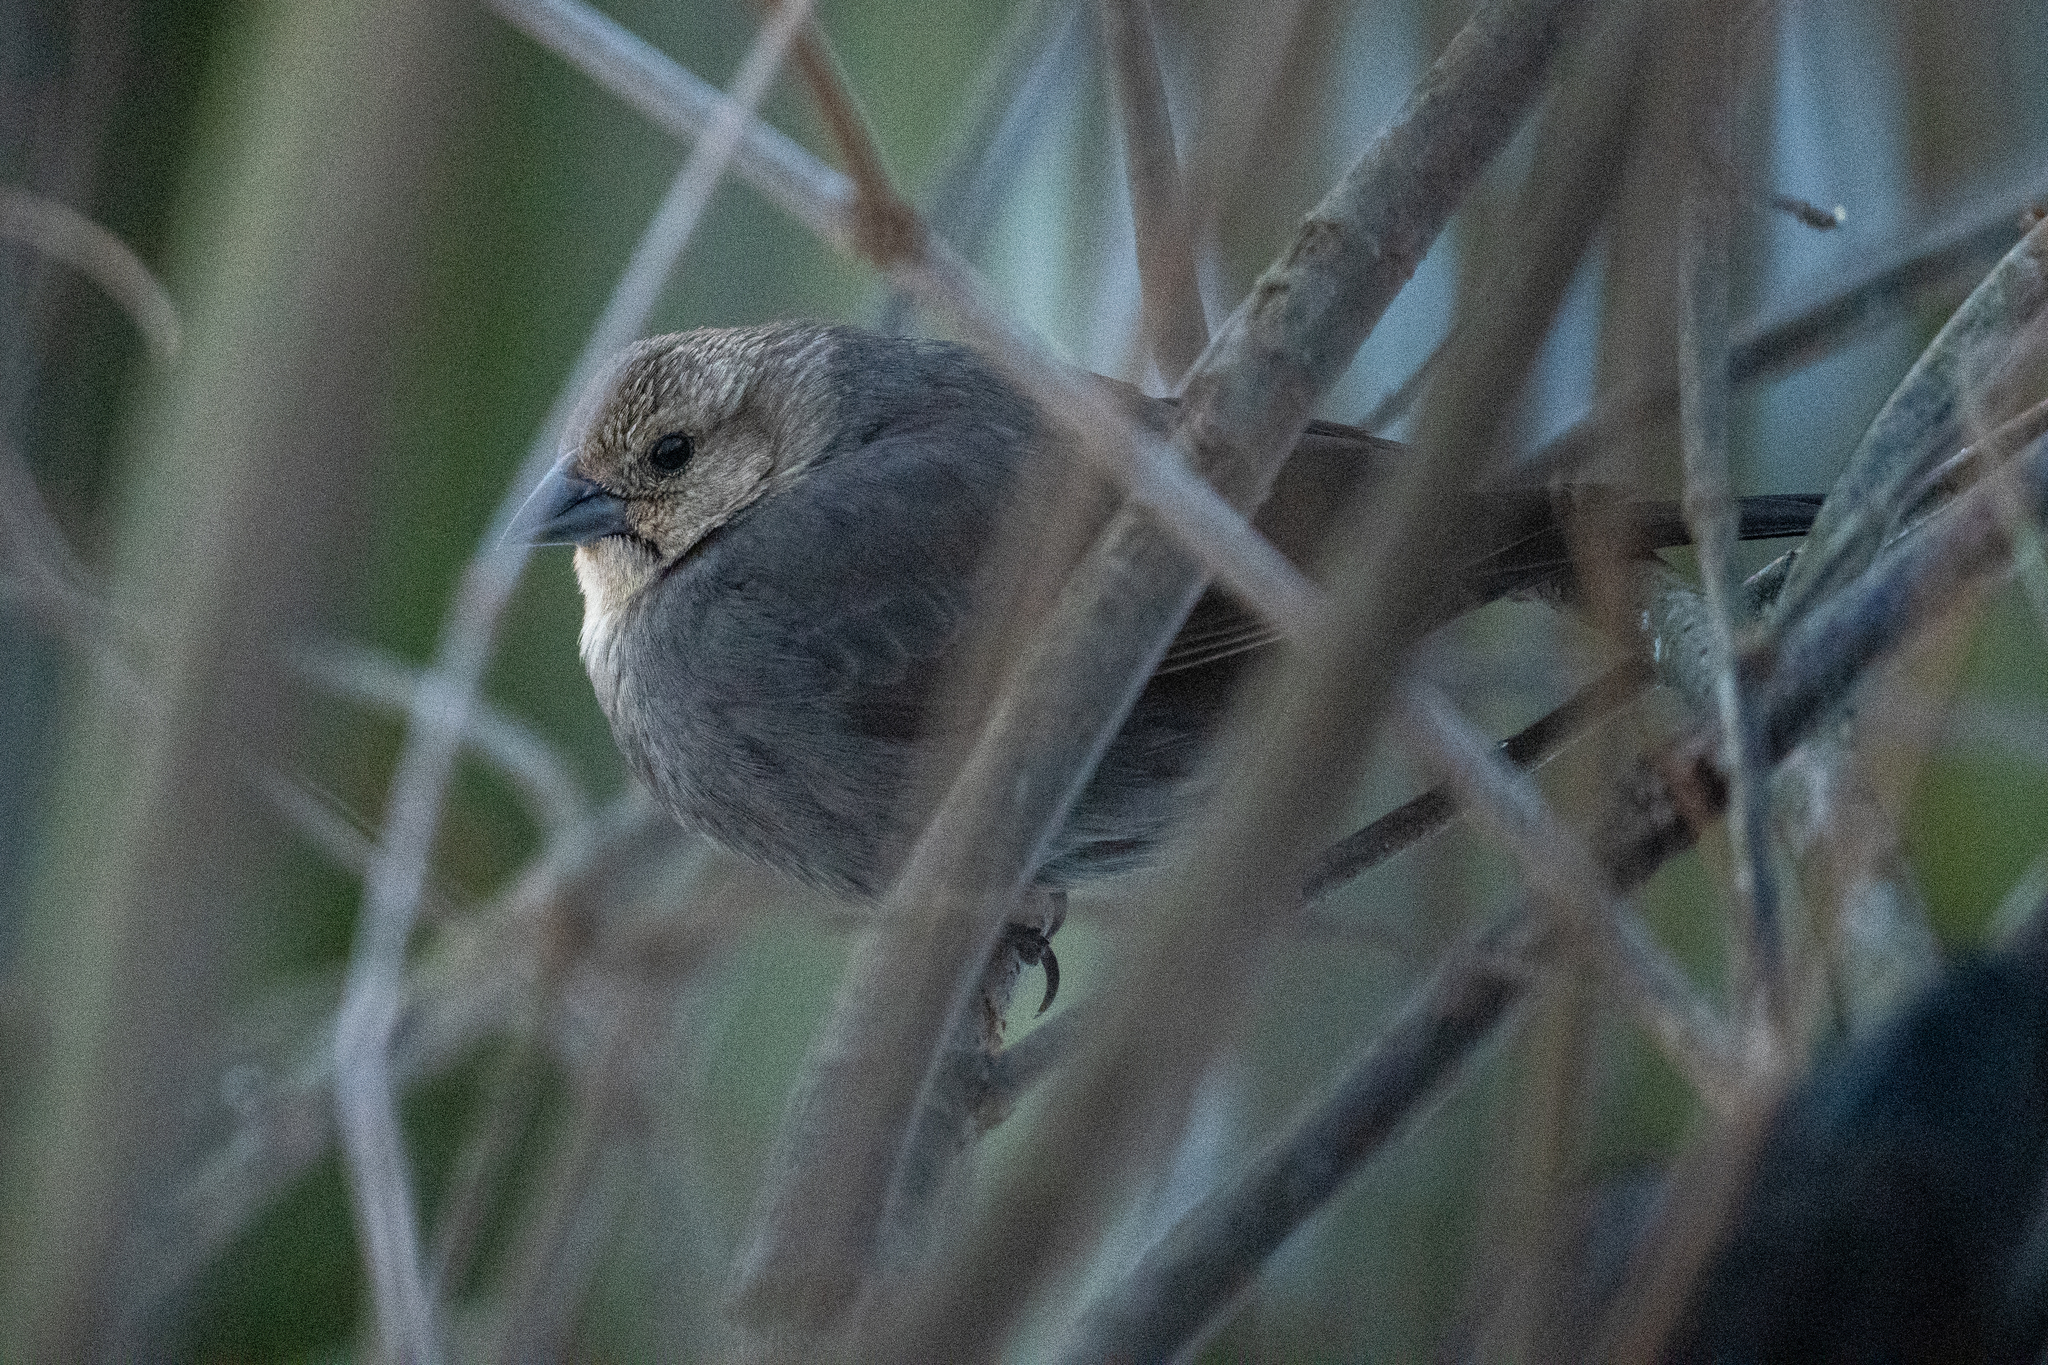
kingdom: Animalia
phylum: Chordata
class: Aves
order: Passeriformes
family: Icteridae
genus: Molothrus
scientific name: Molothrus ater
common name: Brown-headed cowbird
